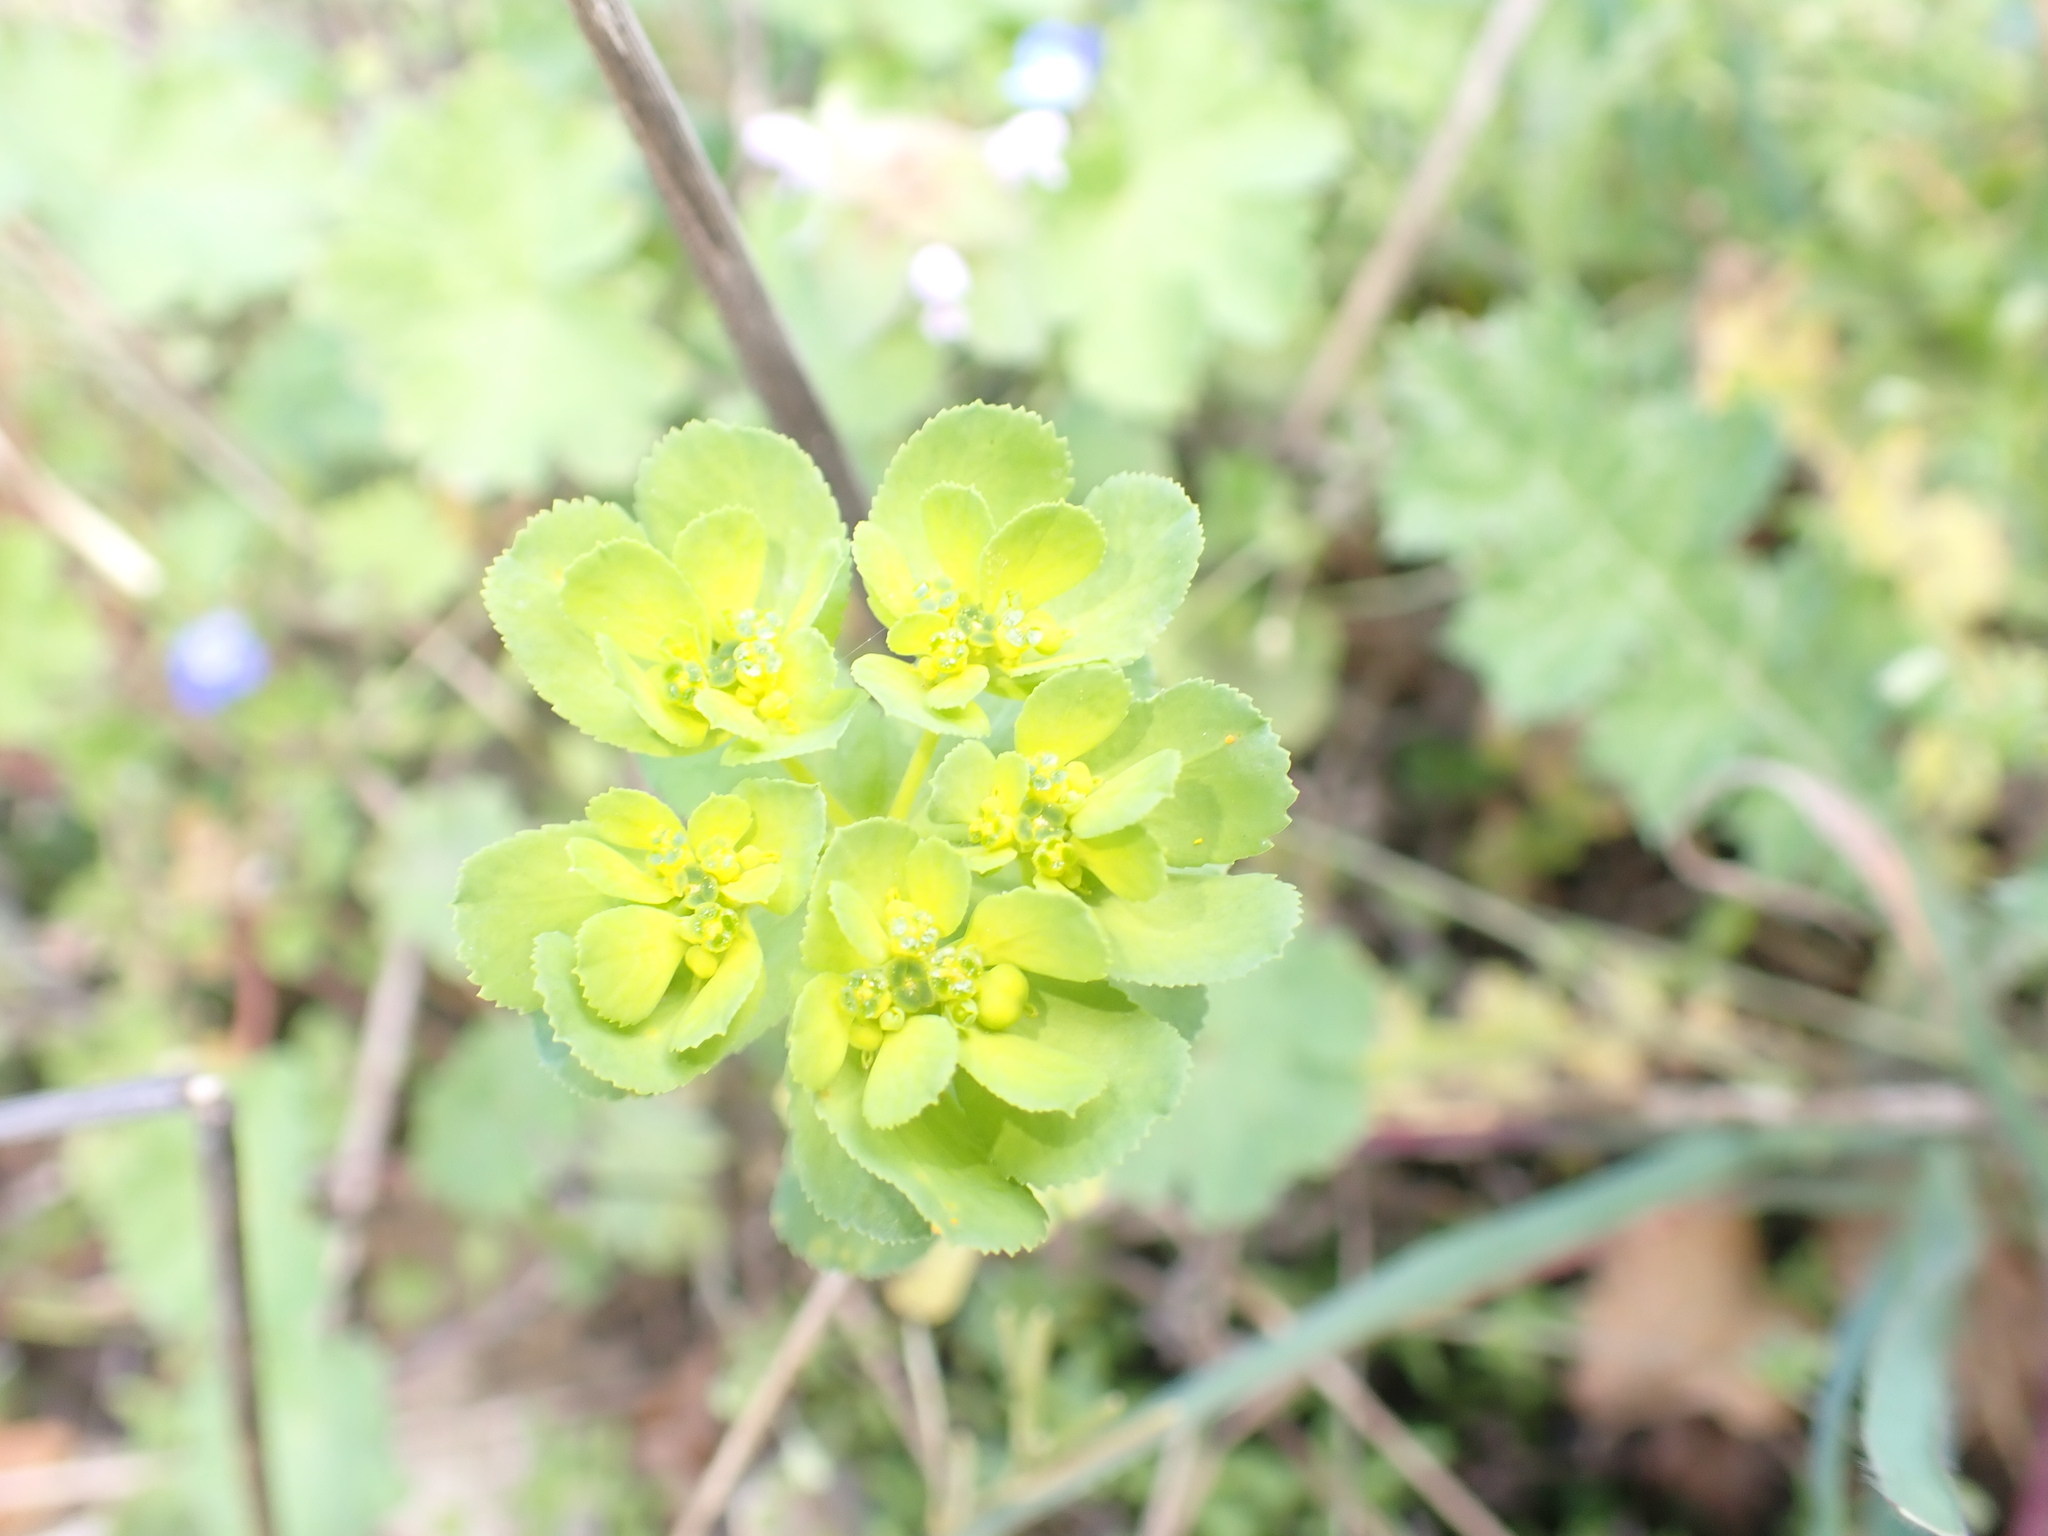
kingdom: Plantae
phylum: Tracheophyta
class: Magnoliopsida
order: Malpighiales
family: Euphorbiaceae
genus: Euphorbia
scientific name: Euphorbia helioscopia
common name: Sun spurge
